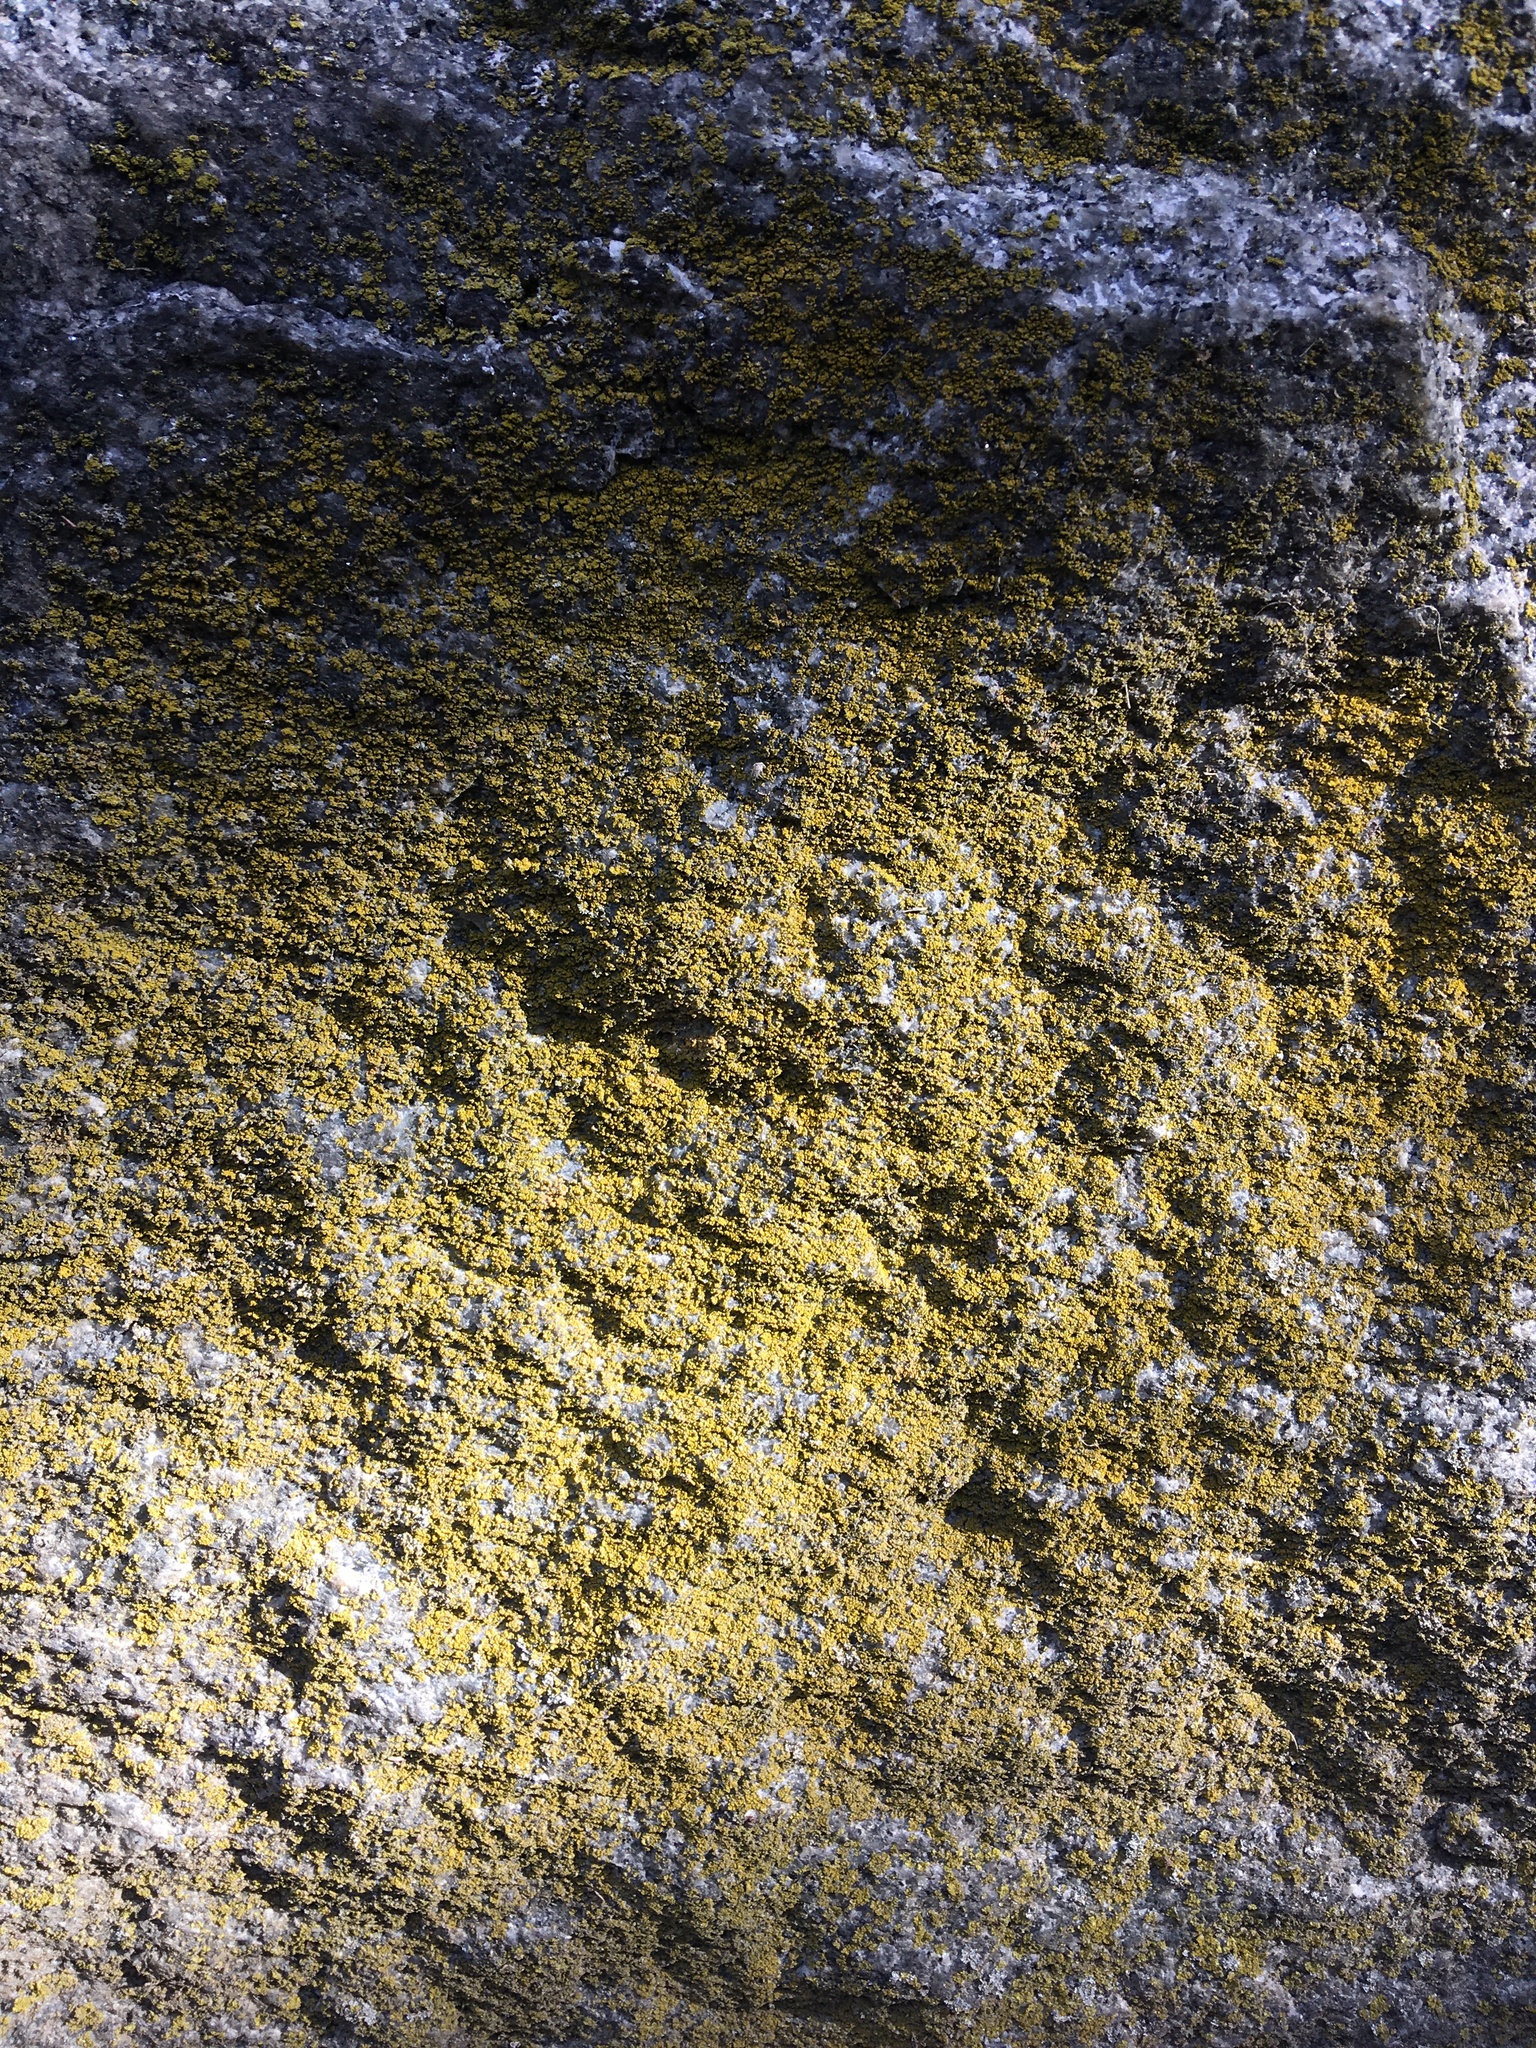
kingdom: Fungi
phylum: Ascomycota
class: Candelariomycetes
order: Candelariales
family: Candelariaceae
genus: Candelaria
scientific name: Candelaria concolor
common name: Candleflame lichen
